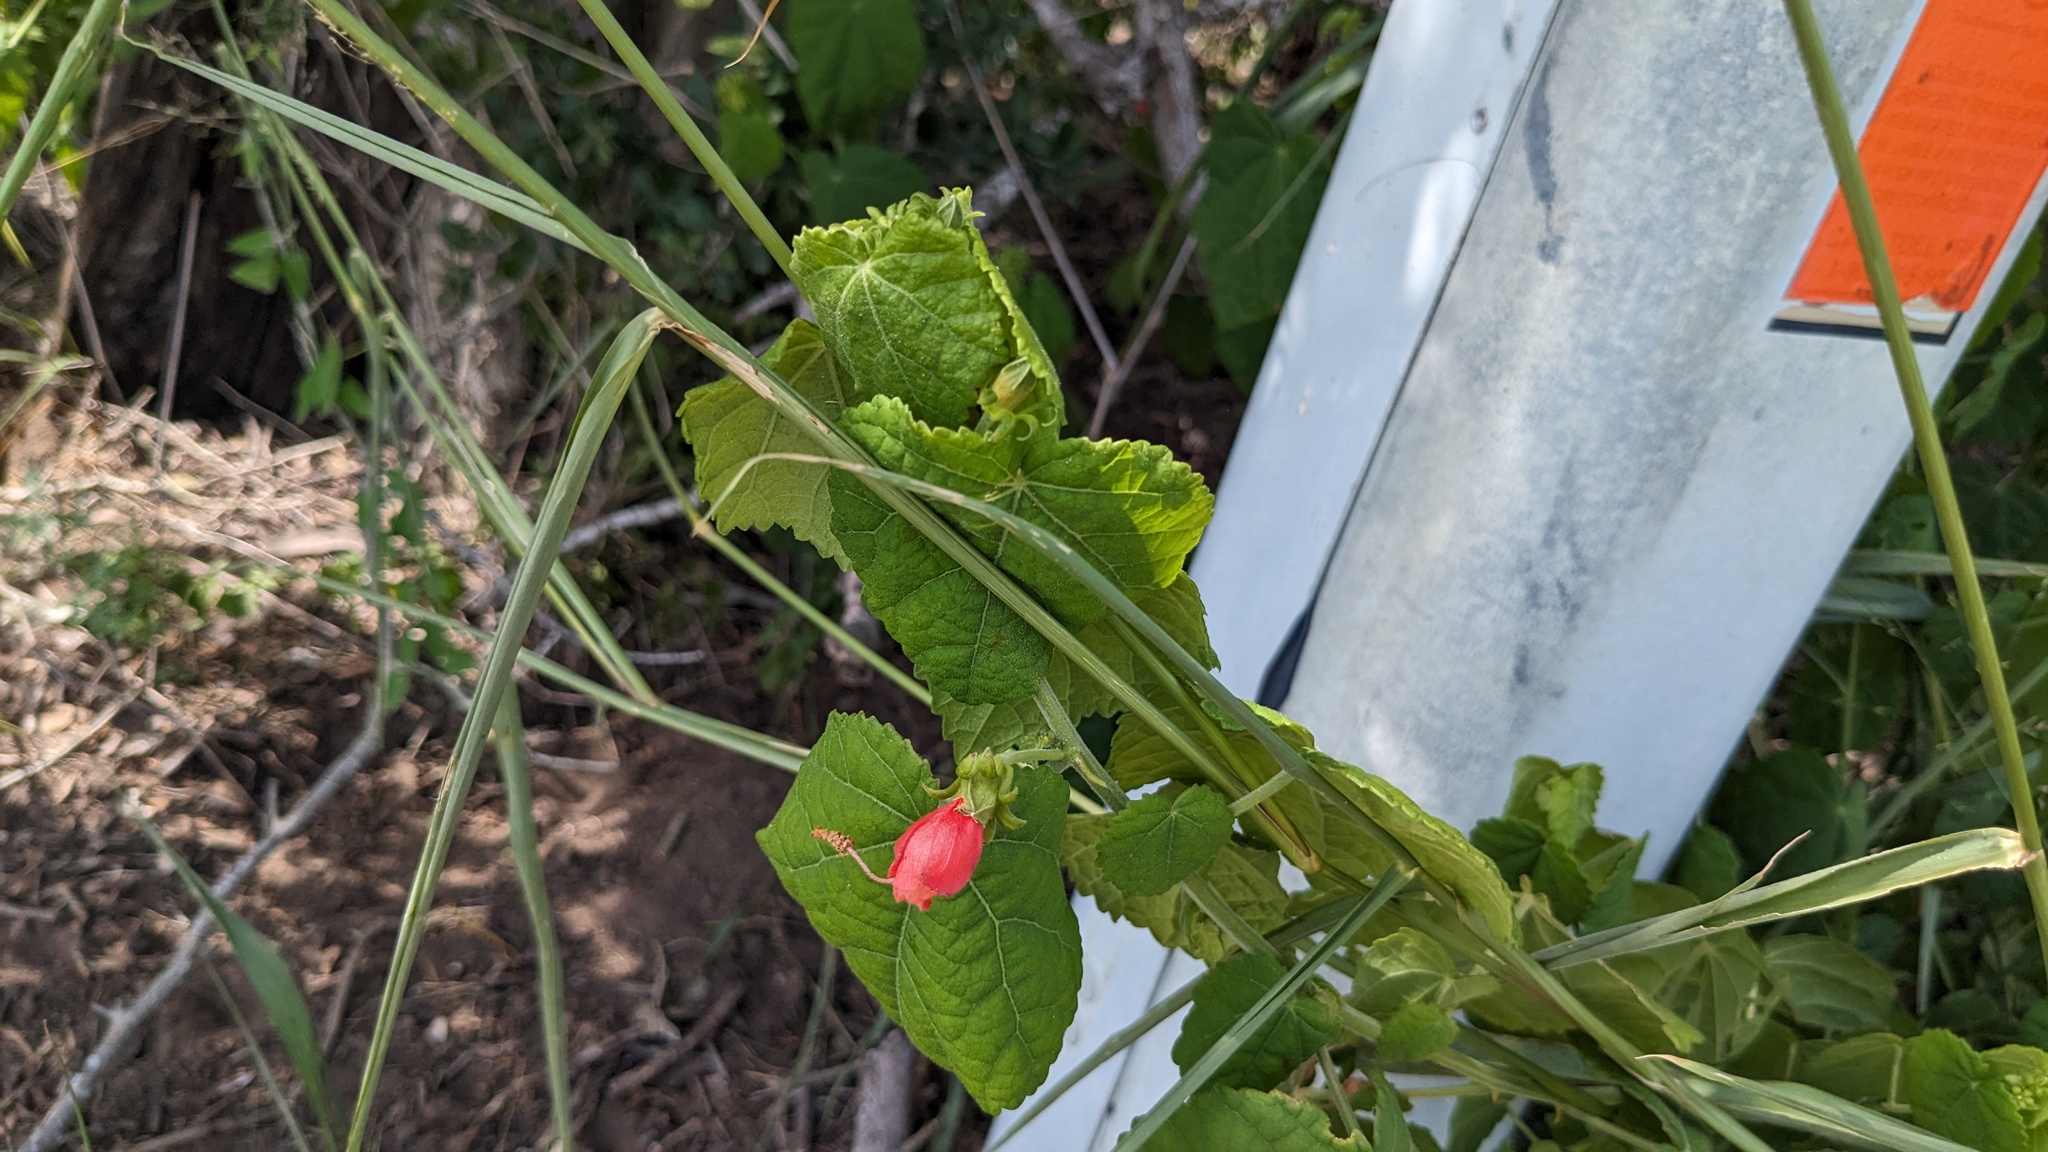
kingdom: Plantae
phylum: Tracheophyta
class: Magnoliopsida
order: Malvales
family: Malvaceae
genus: Malvaviscus
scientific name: Malvaviscus arboreus
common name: Wax mallow
